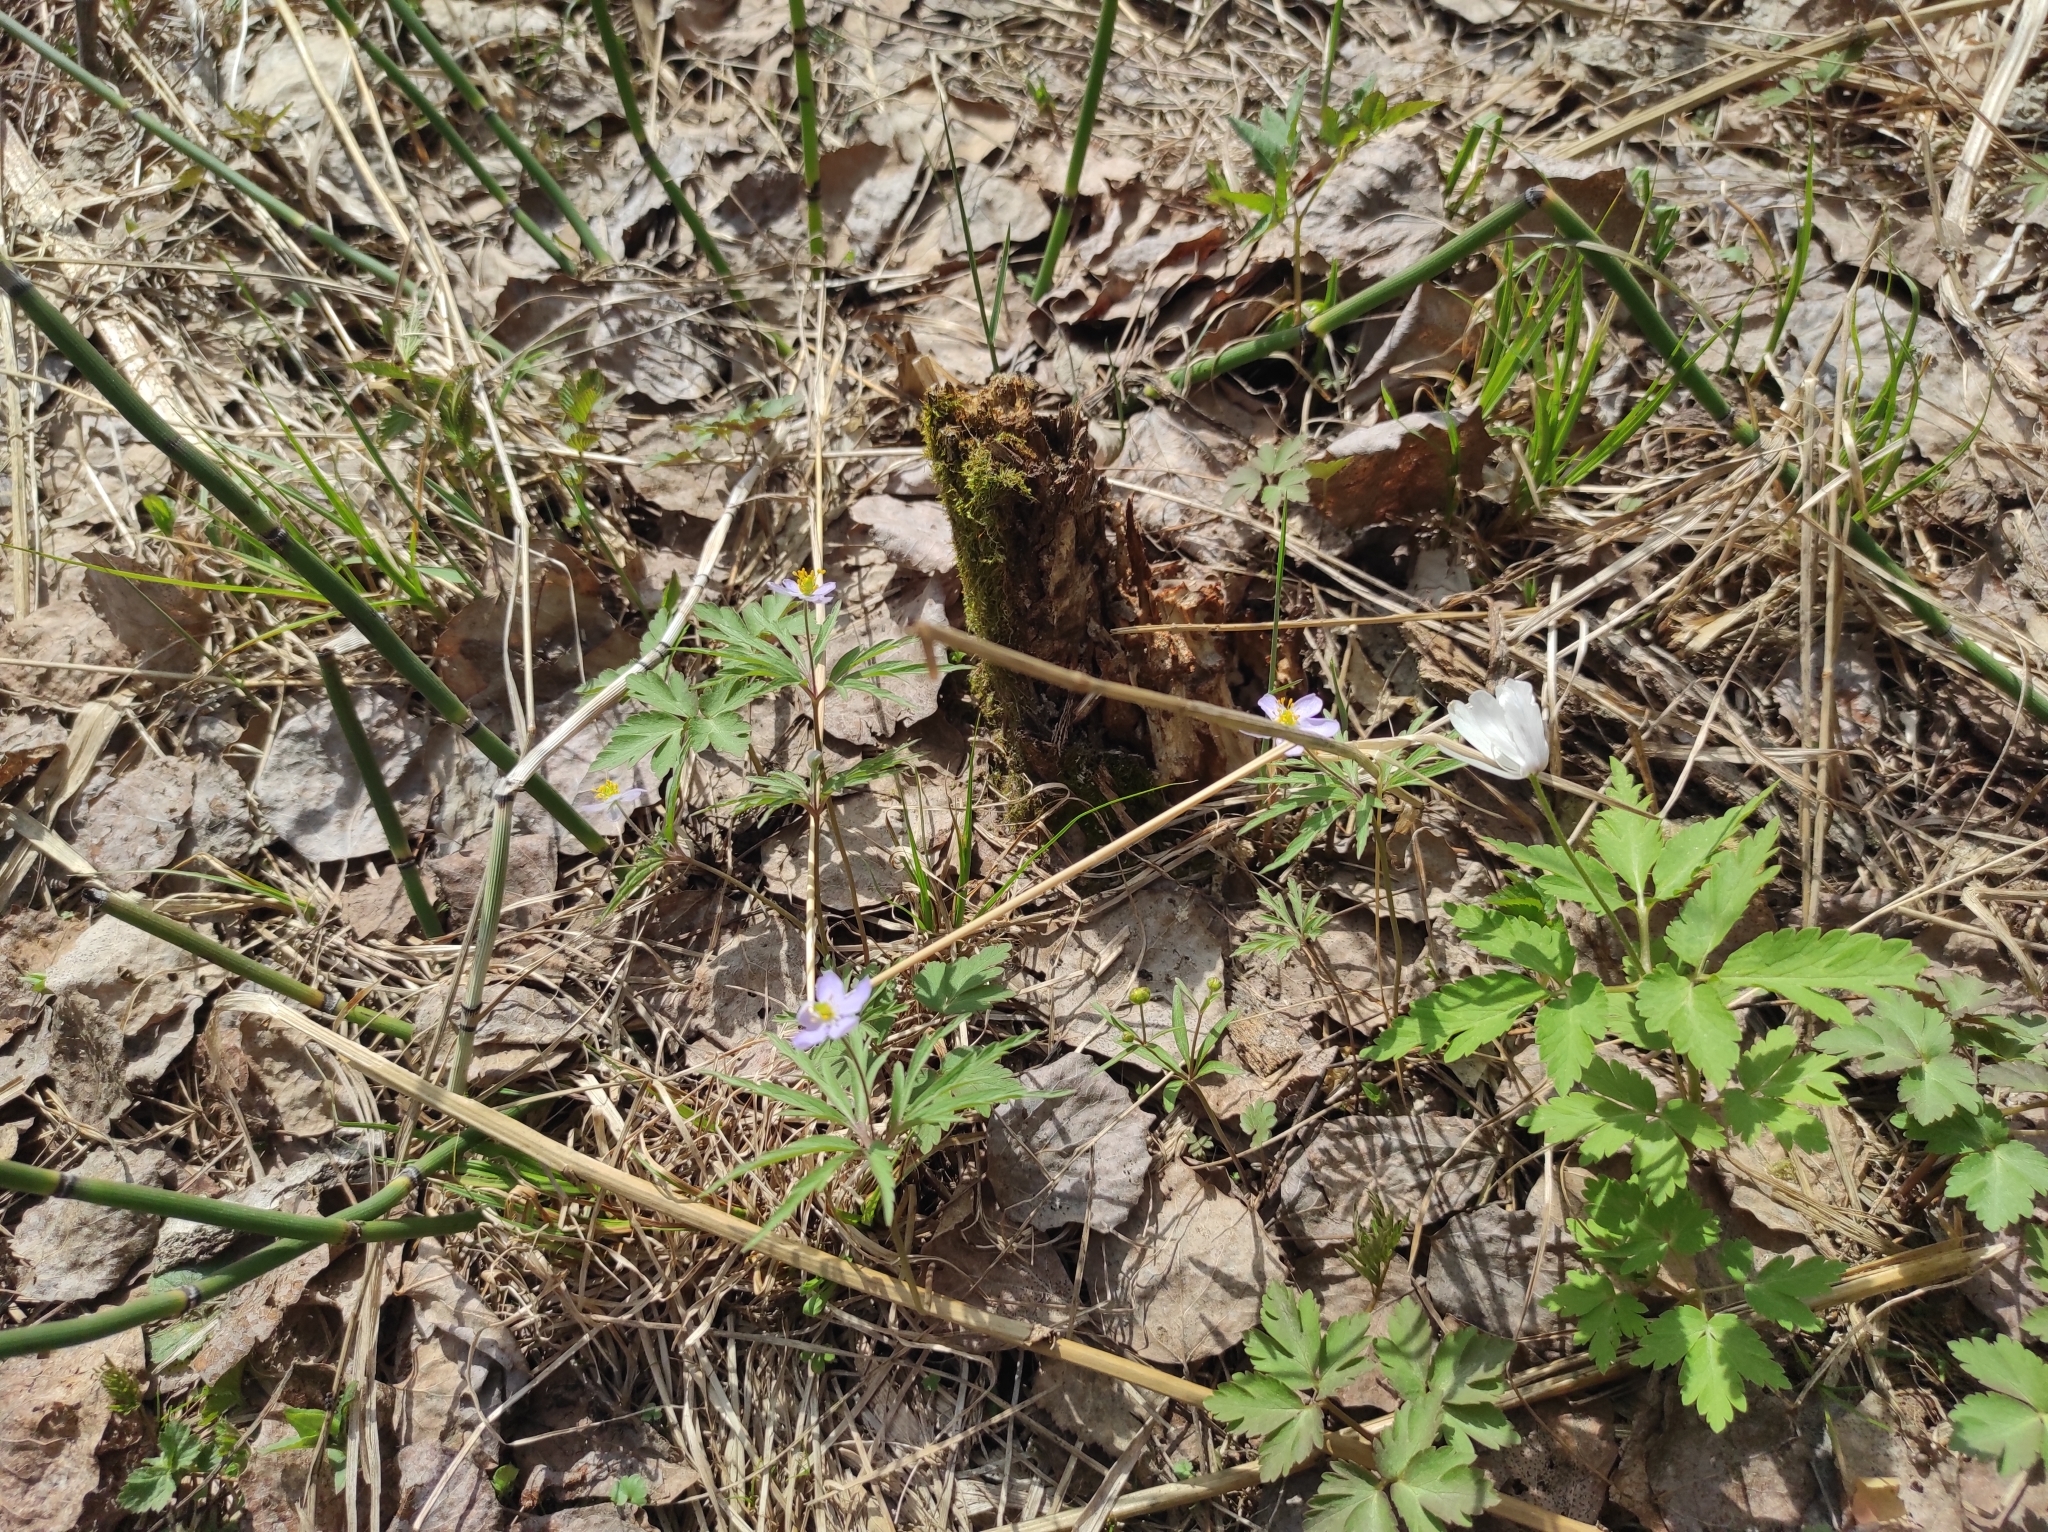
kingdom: Plantae
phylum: Tracheophyta
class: Magnoliopsida
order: Ranunculales
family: Ranunculaceae
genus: Anemone
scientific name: Anemone altaica
